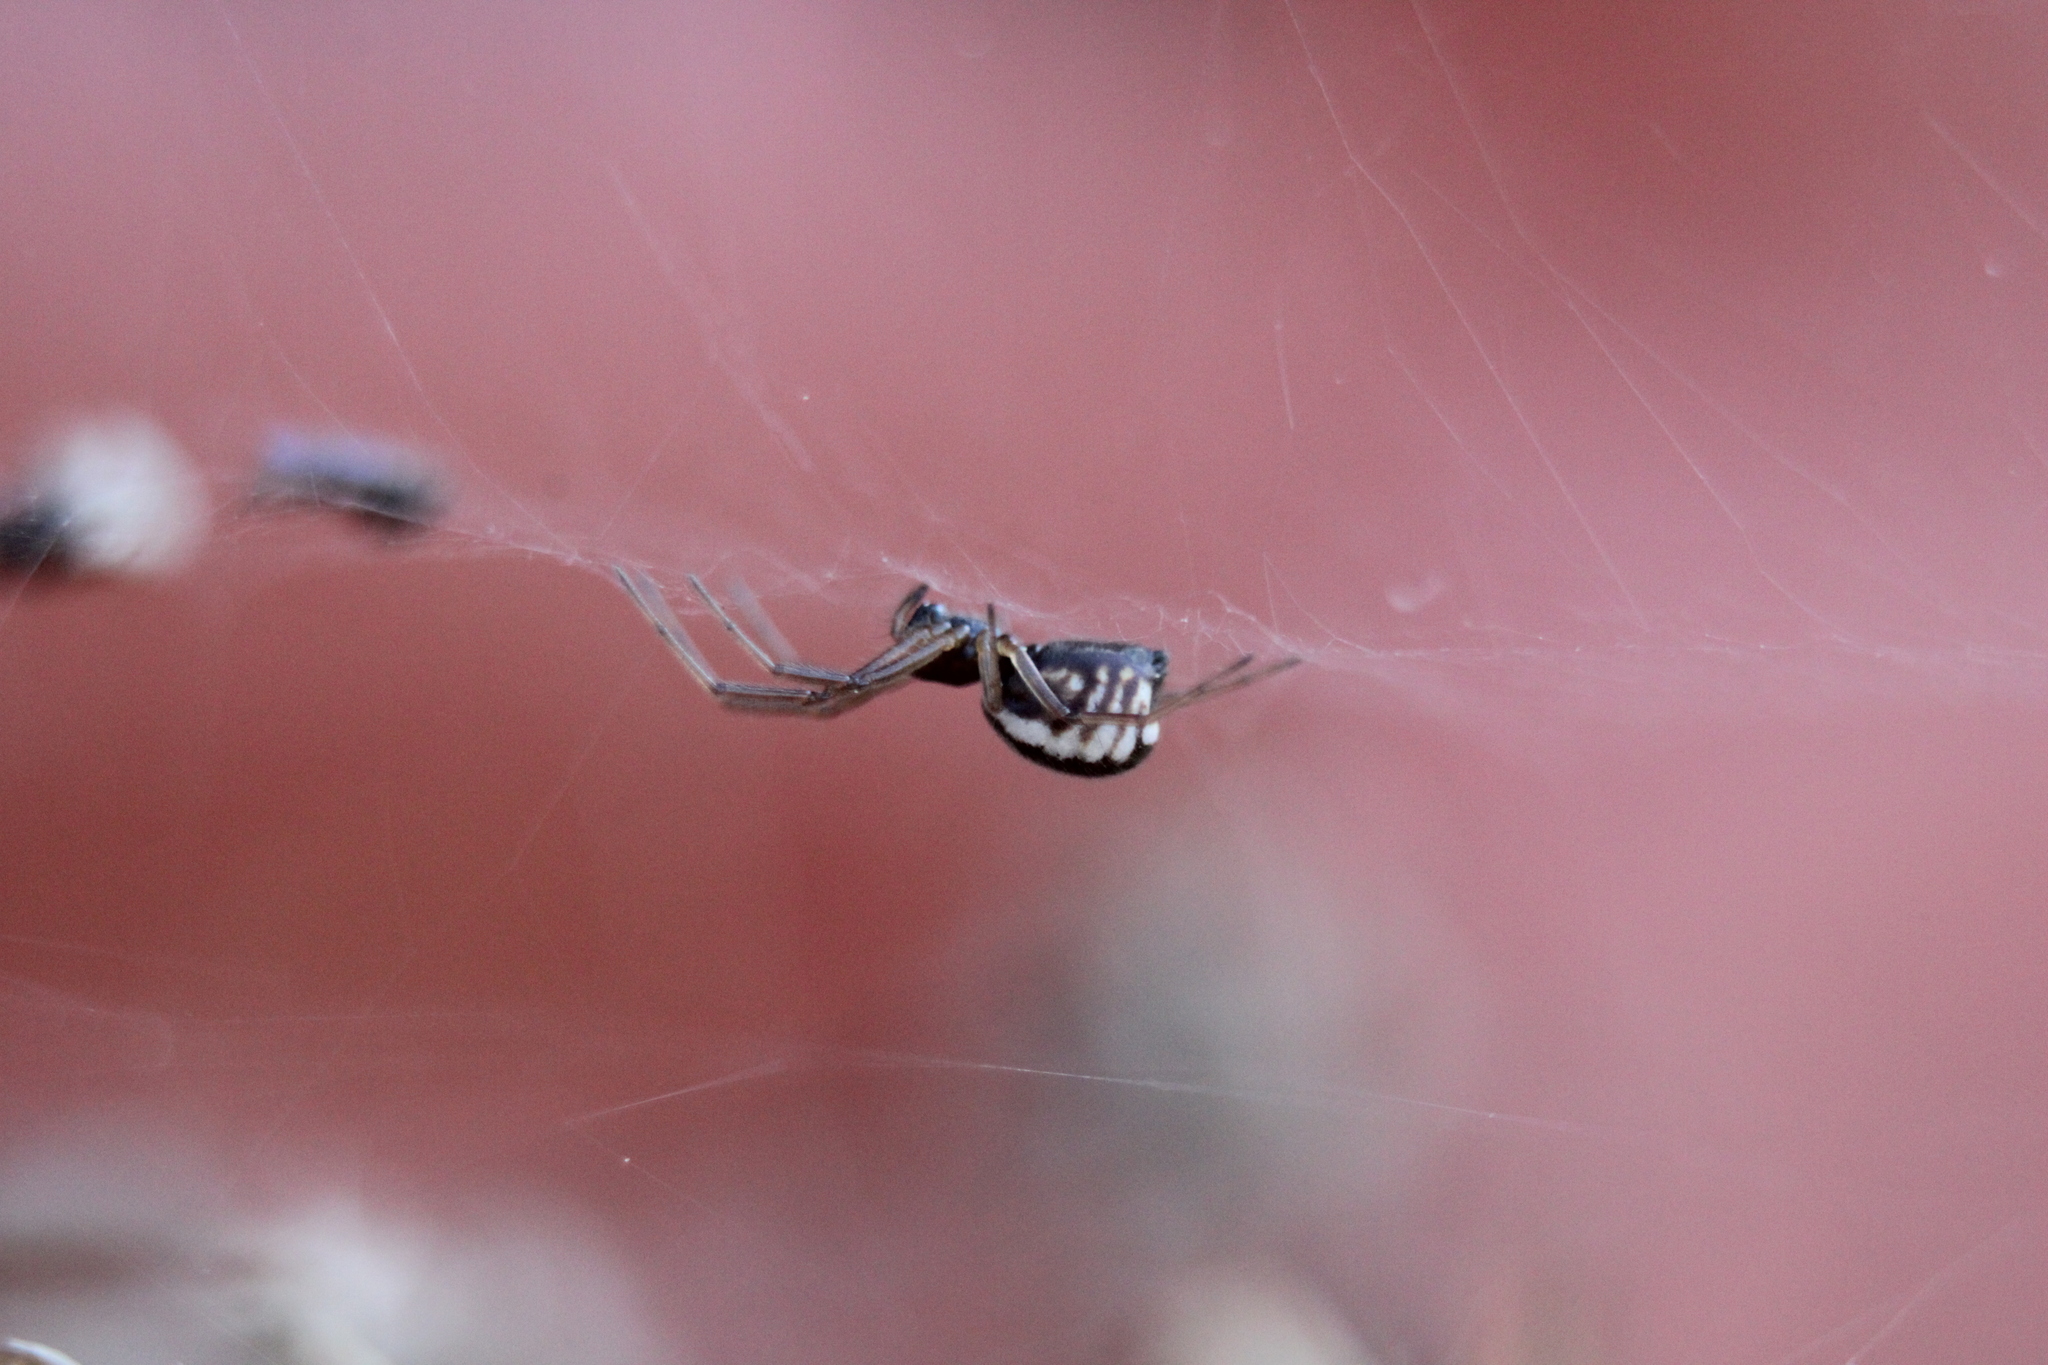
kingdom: Animalia
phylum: Arthropoda
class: Arachnida
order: Araneae
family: Linyphiidae
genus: Frontinella
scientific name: Frontinella pyramitela
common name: Bowl-and-doily spider
